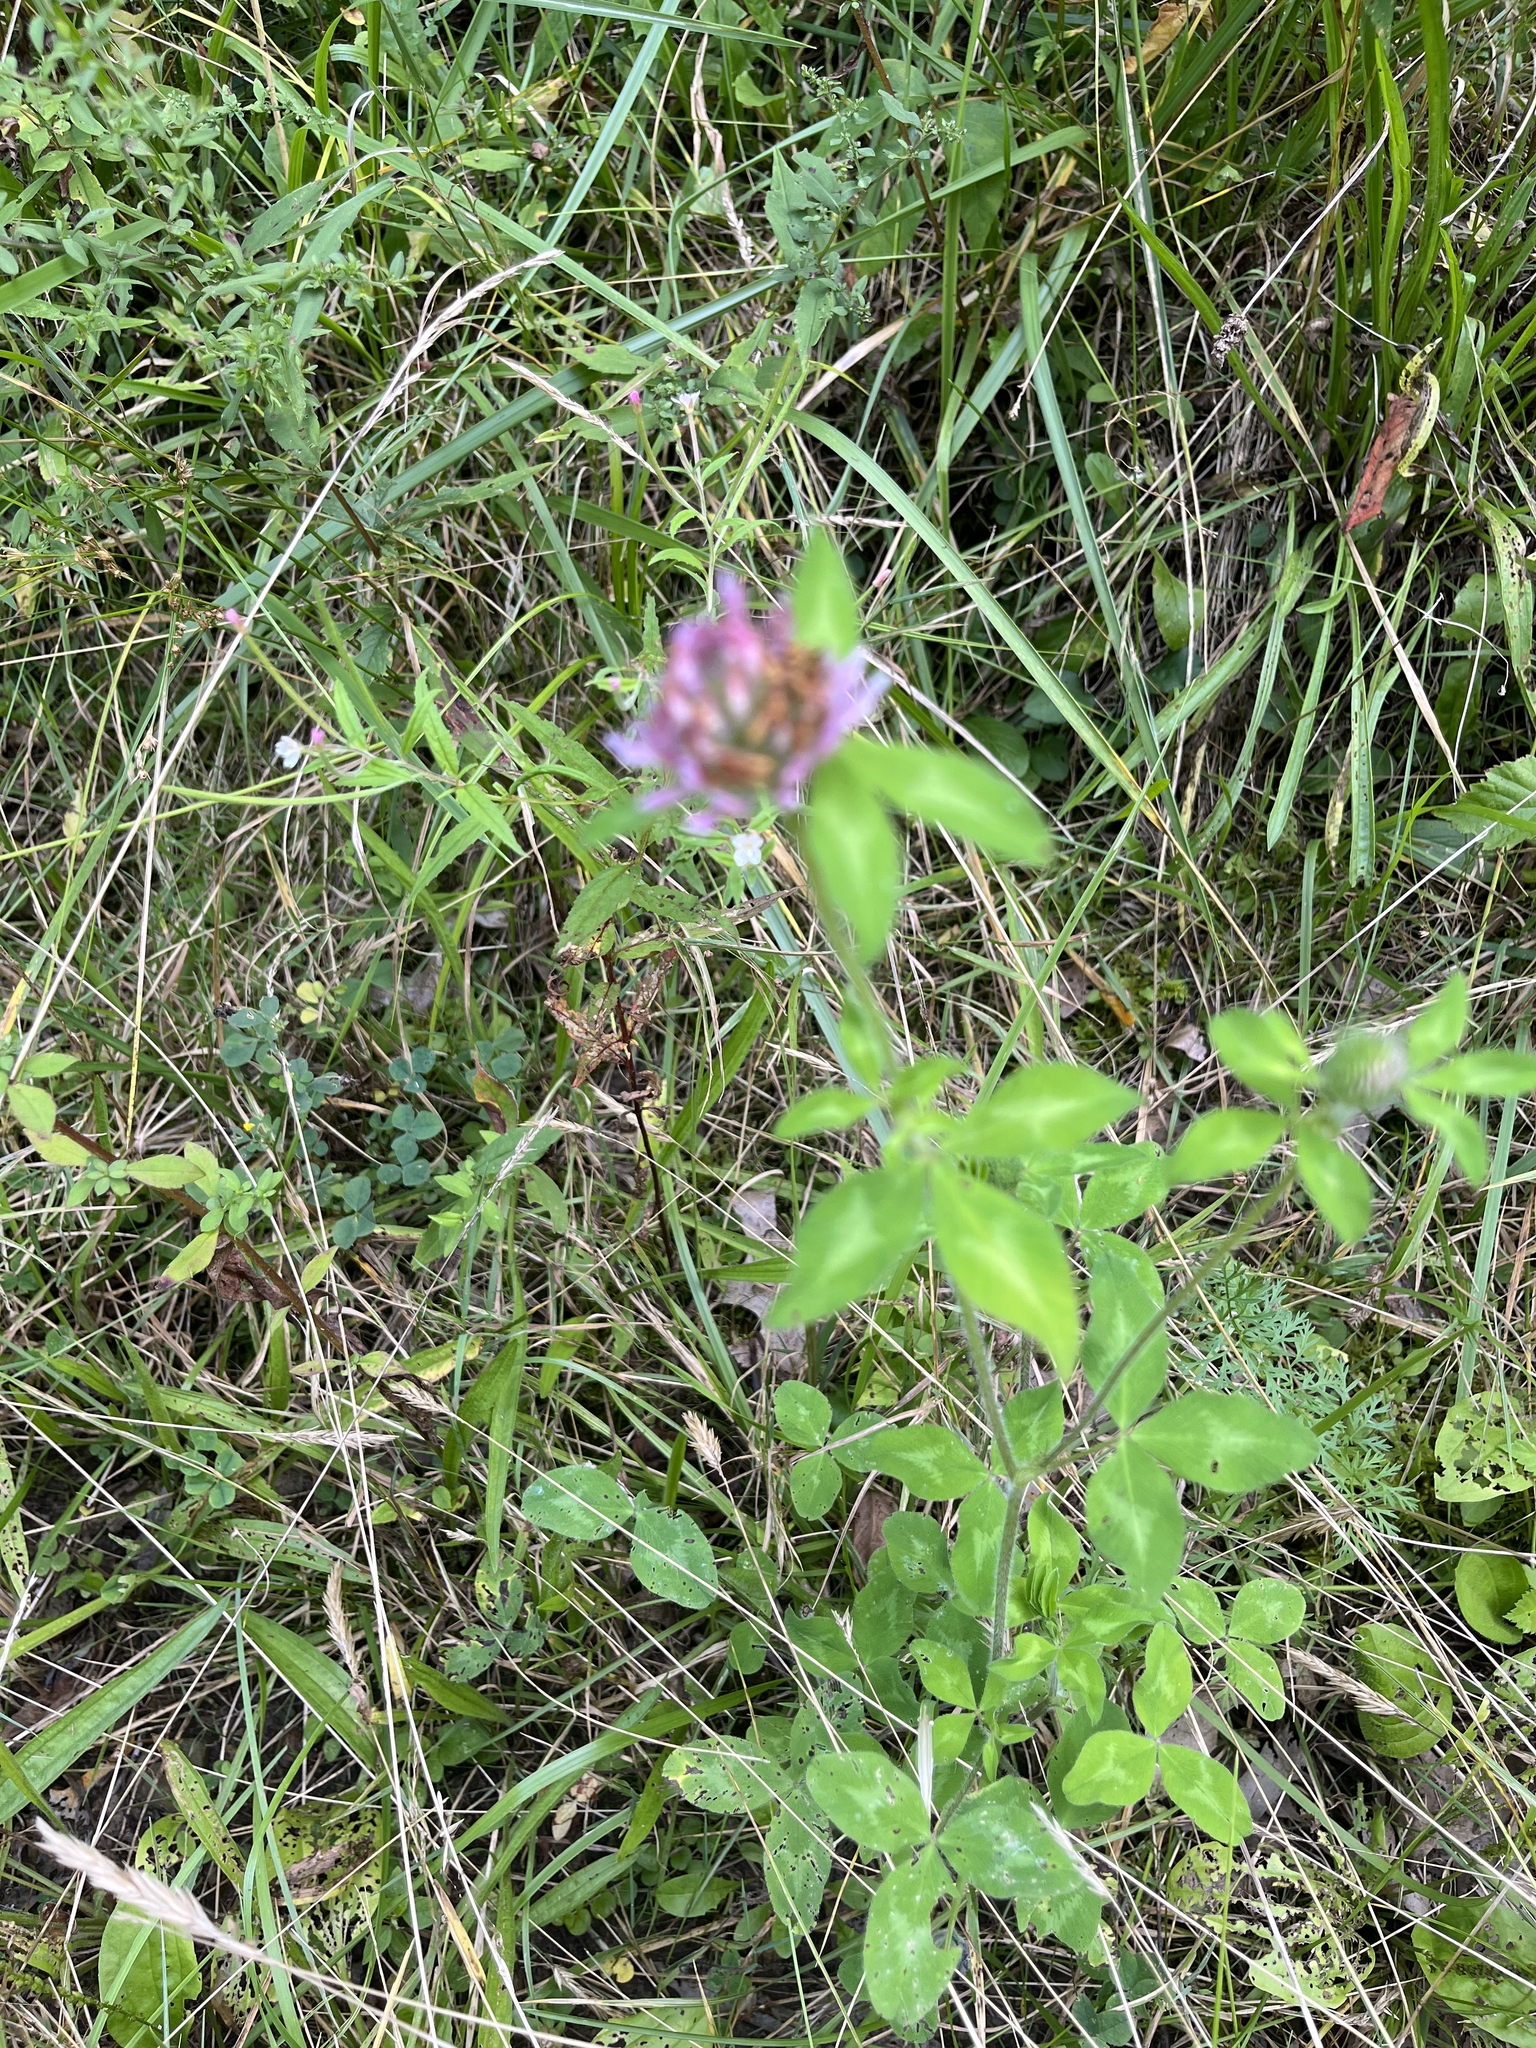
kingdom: Plantae
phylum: Tracheophyta
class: Magnoliopsida
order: Fabales
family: Fabaceae
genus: Trifolium
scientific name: Trifolium pratense
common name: Red clover
